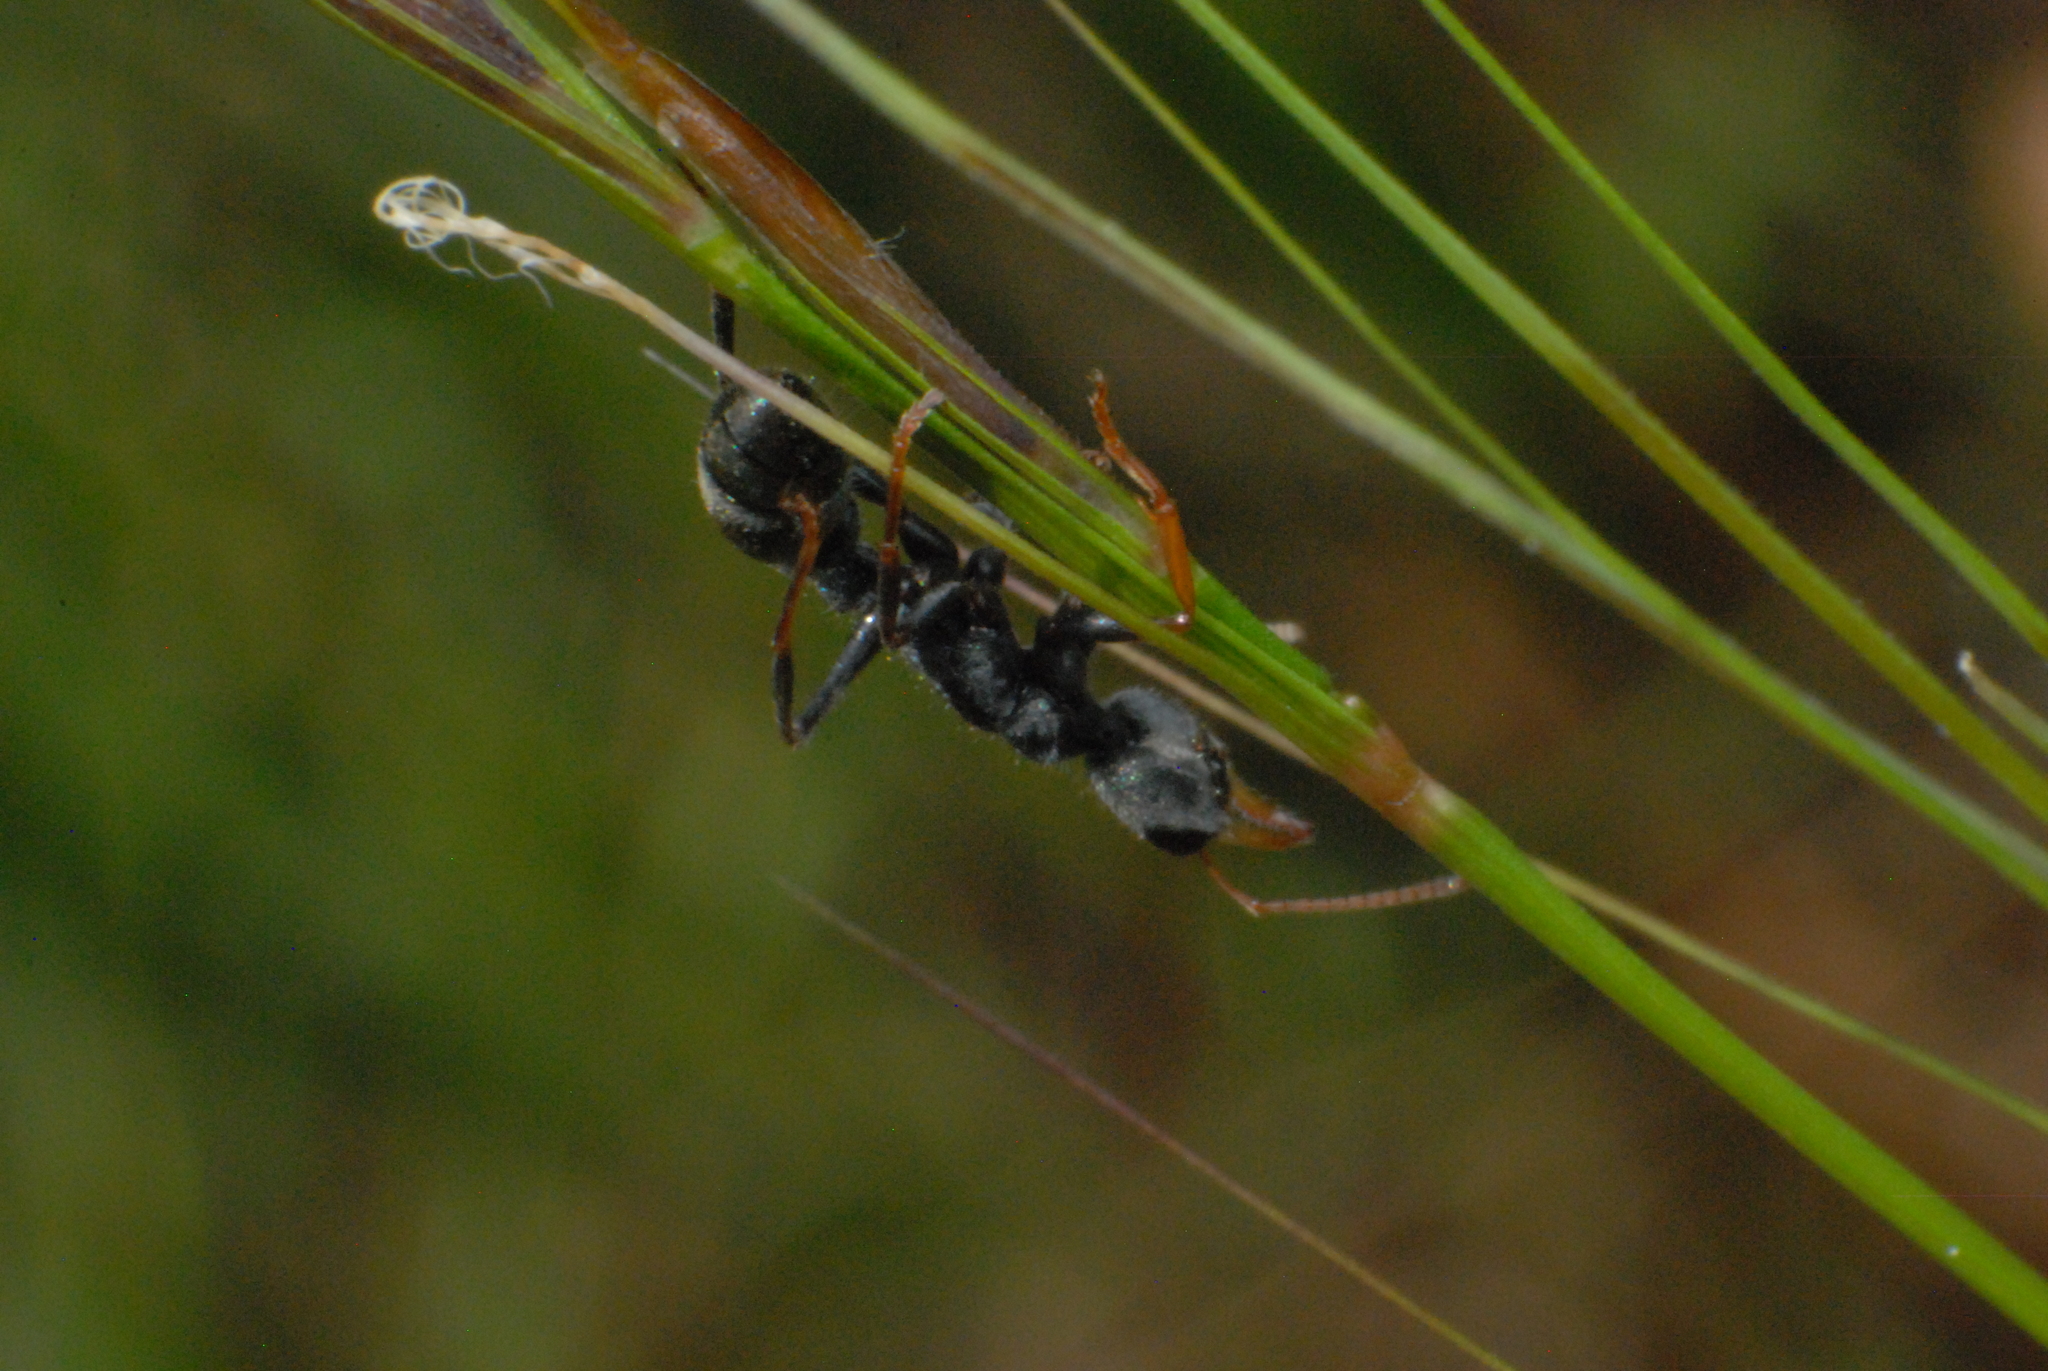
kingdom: Animalia
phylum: Arthropoda
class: Insecta
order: Hymenoptera
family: Formicidae
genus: Myrmecia
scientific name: Myrmecia urens
